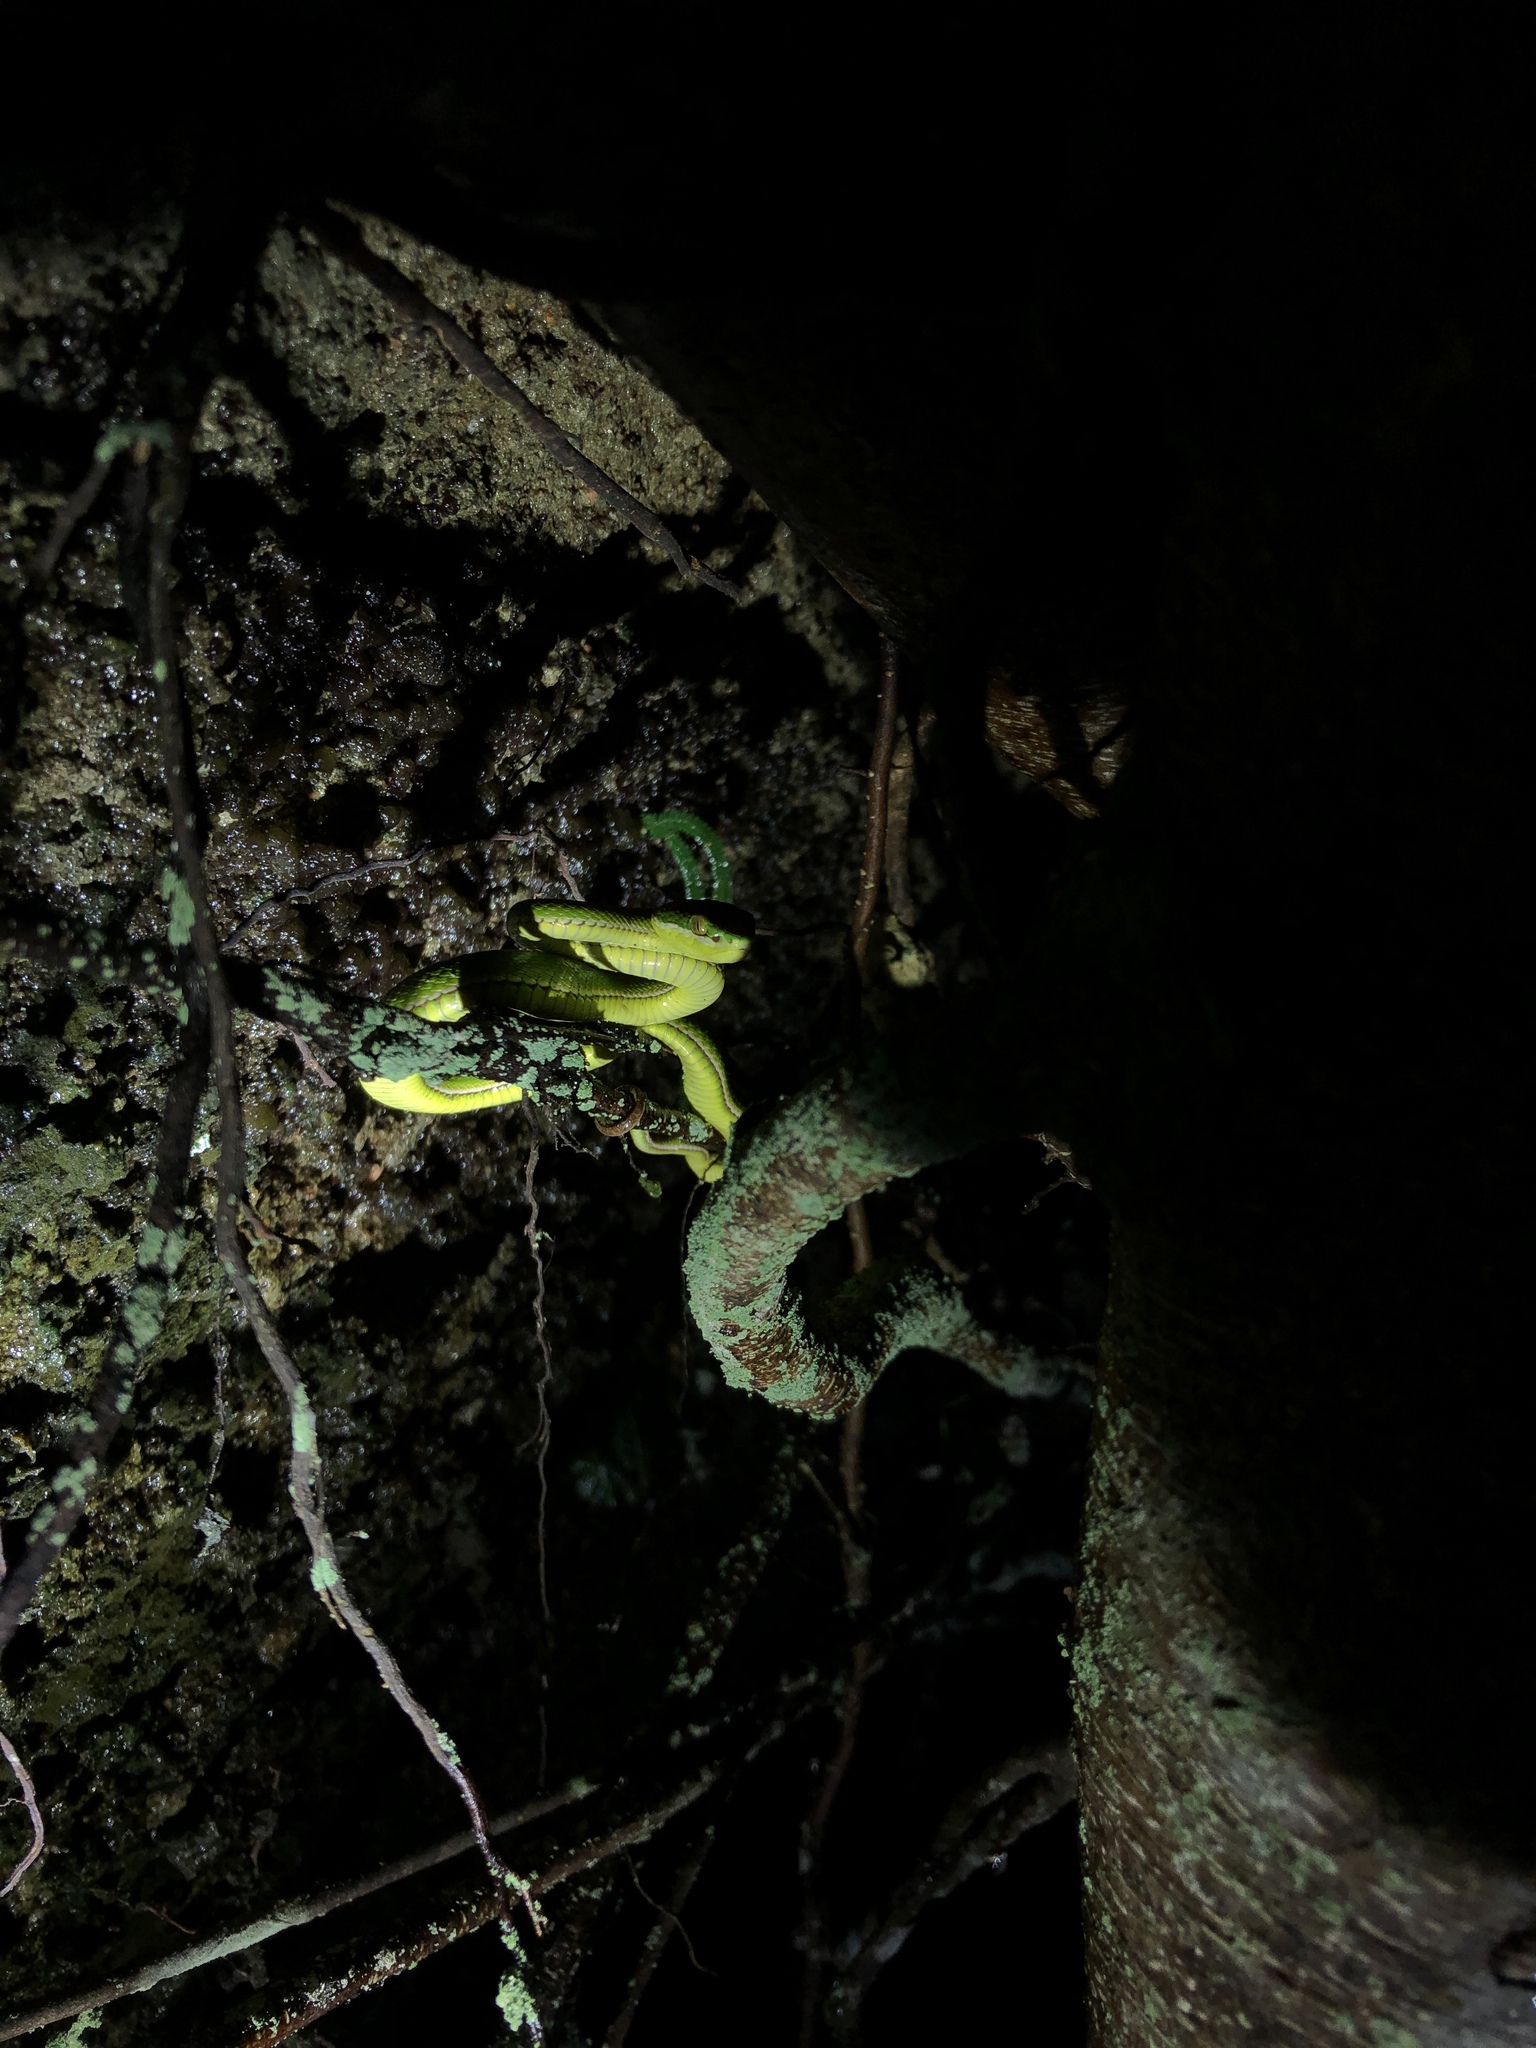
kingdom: Animalia
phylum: Chordata
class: Squamata
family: Viperidae
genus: Trimeresurus
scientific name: Trimeresurus albolabris
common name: White-lipped pitviper
